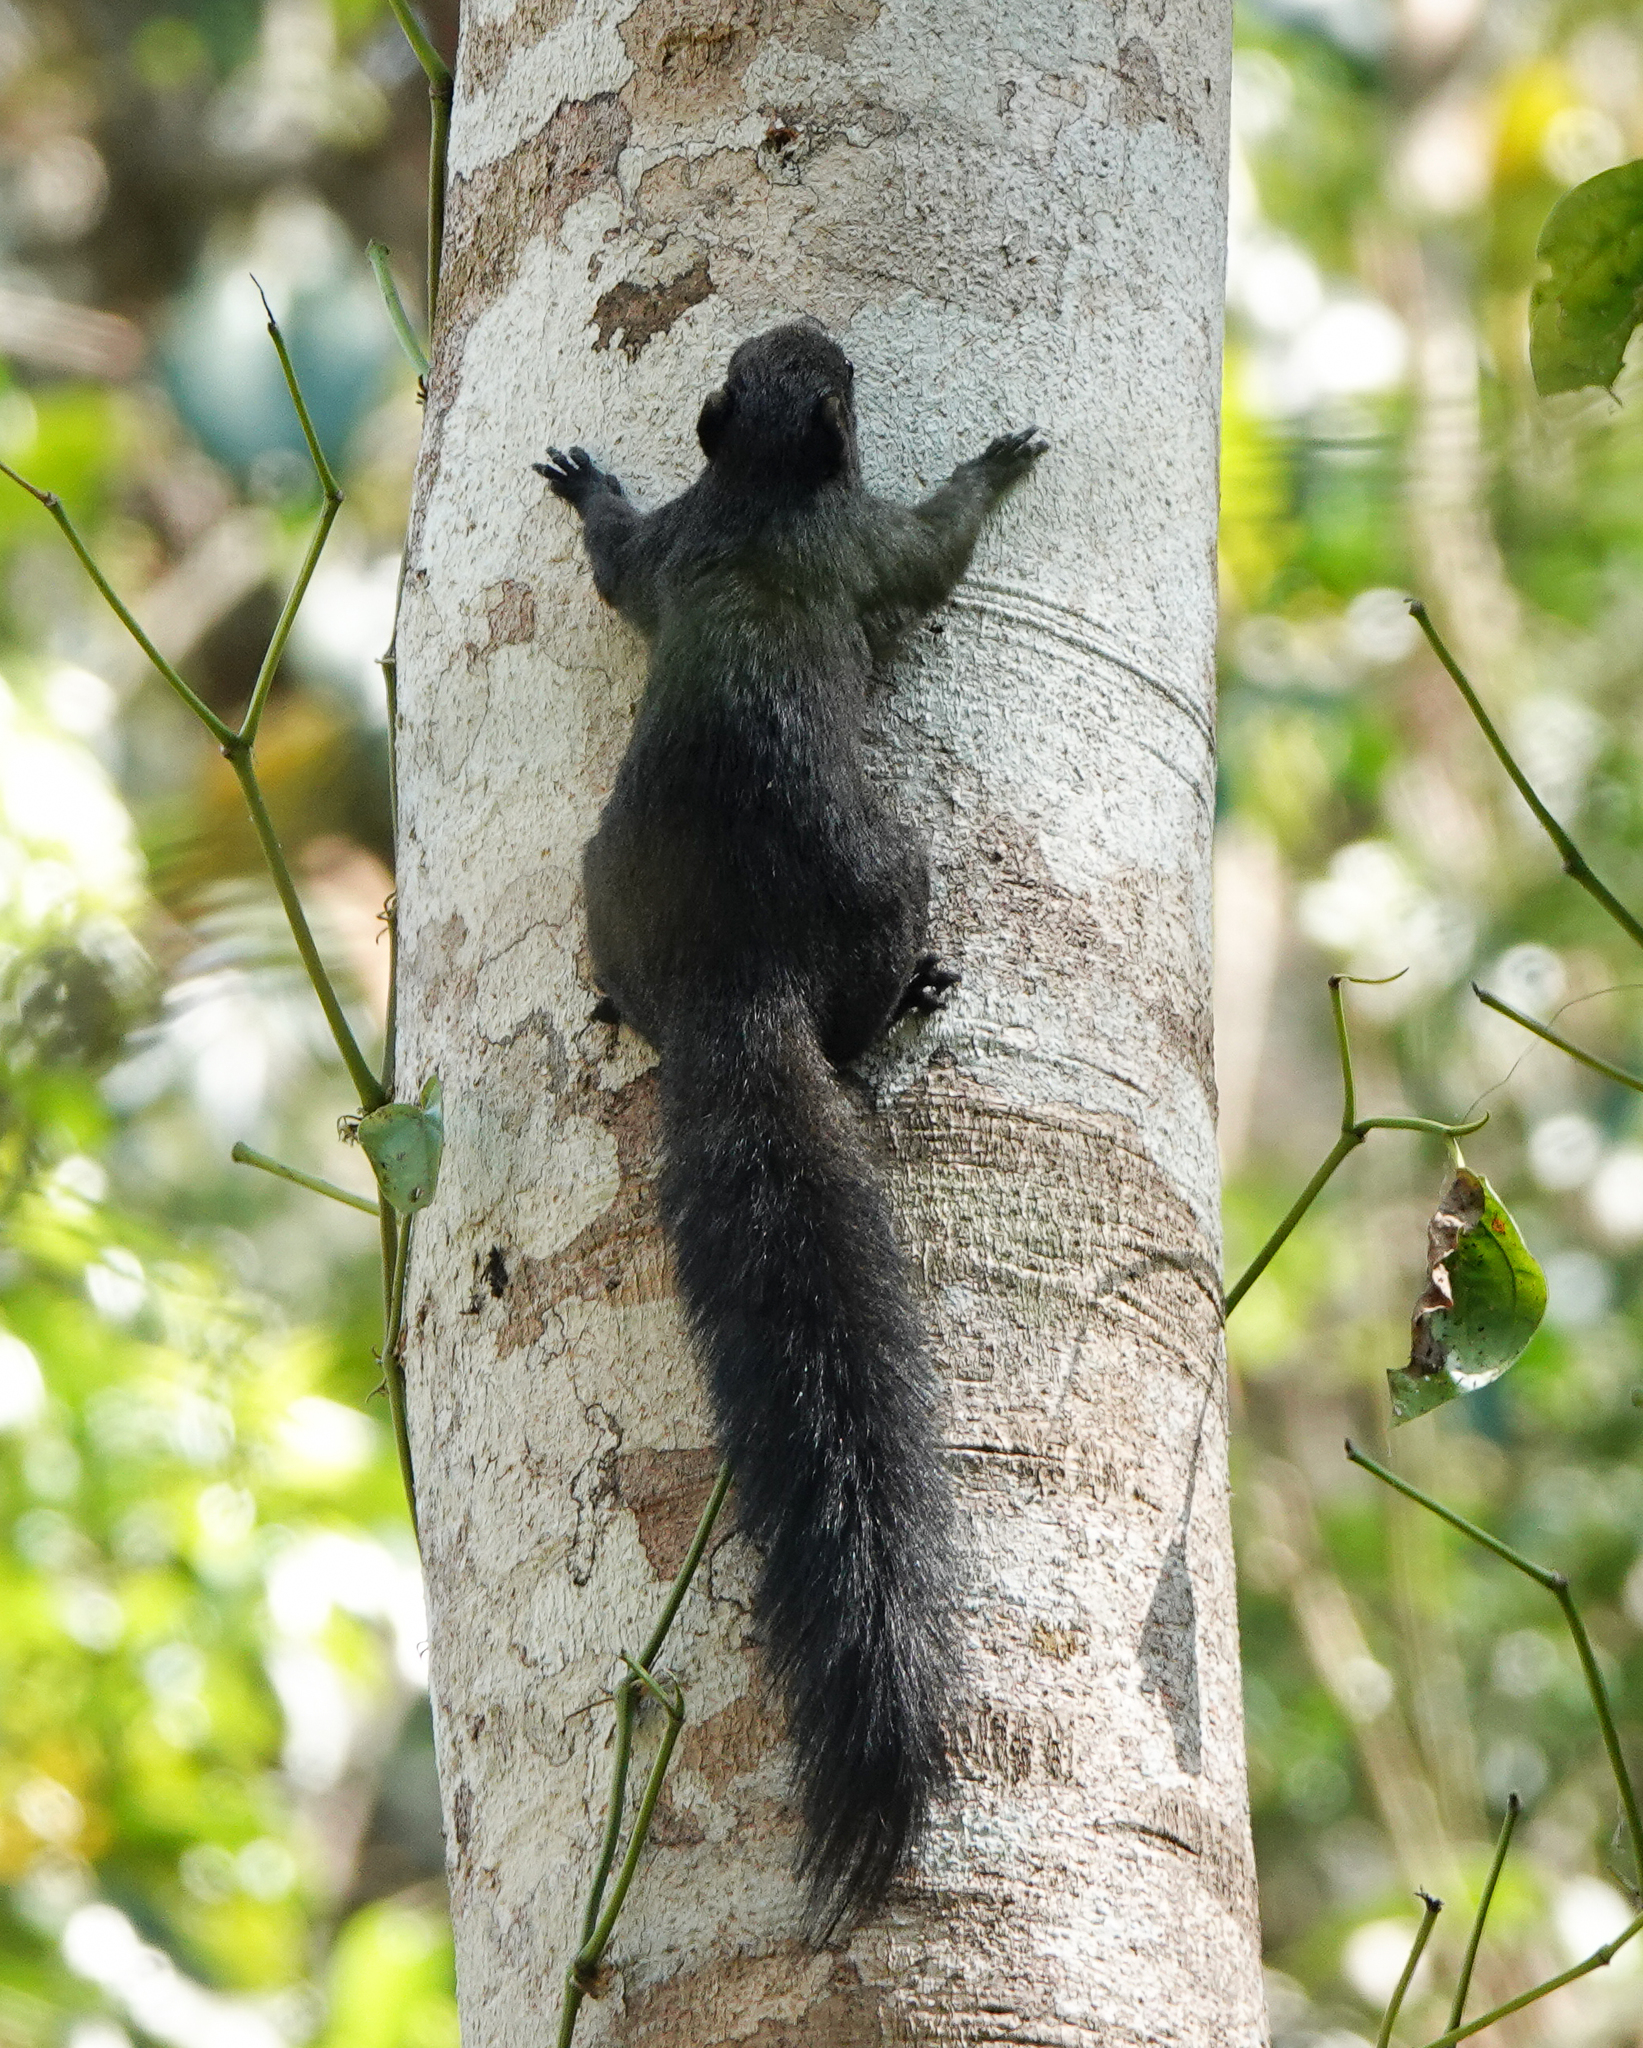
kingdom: Animalia
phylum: Chordata
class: Mammalia
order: Rodentia
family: Sciuridae
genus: Callosciurus
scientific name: Callosciurus erythraeus
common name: Pallas's squirrel
